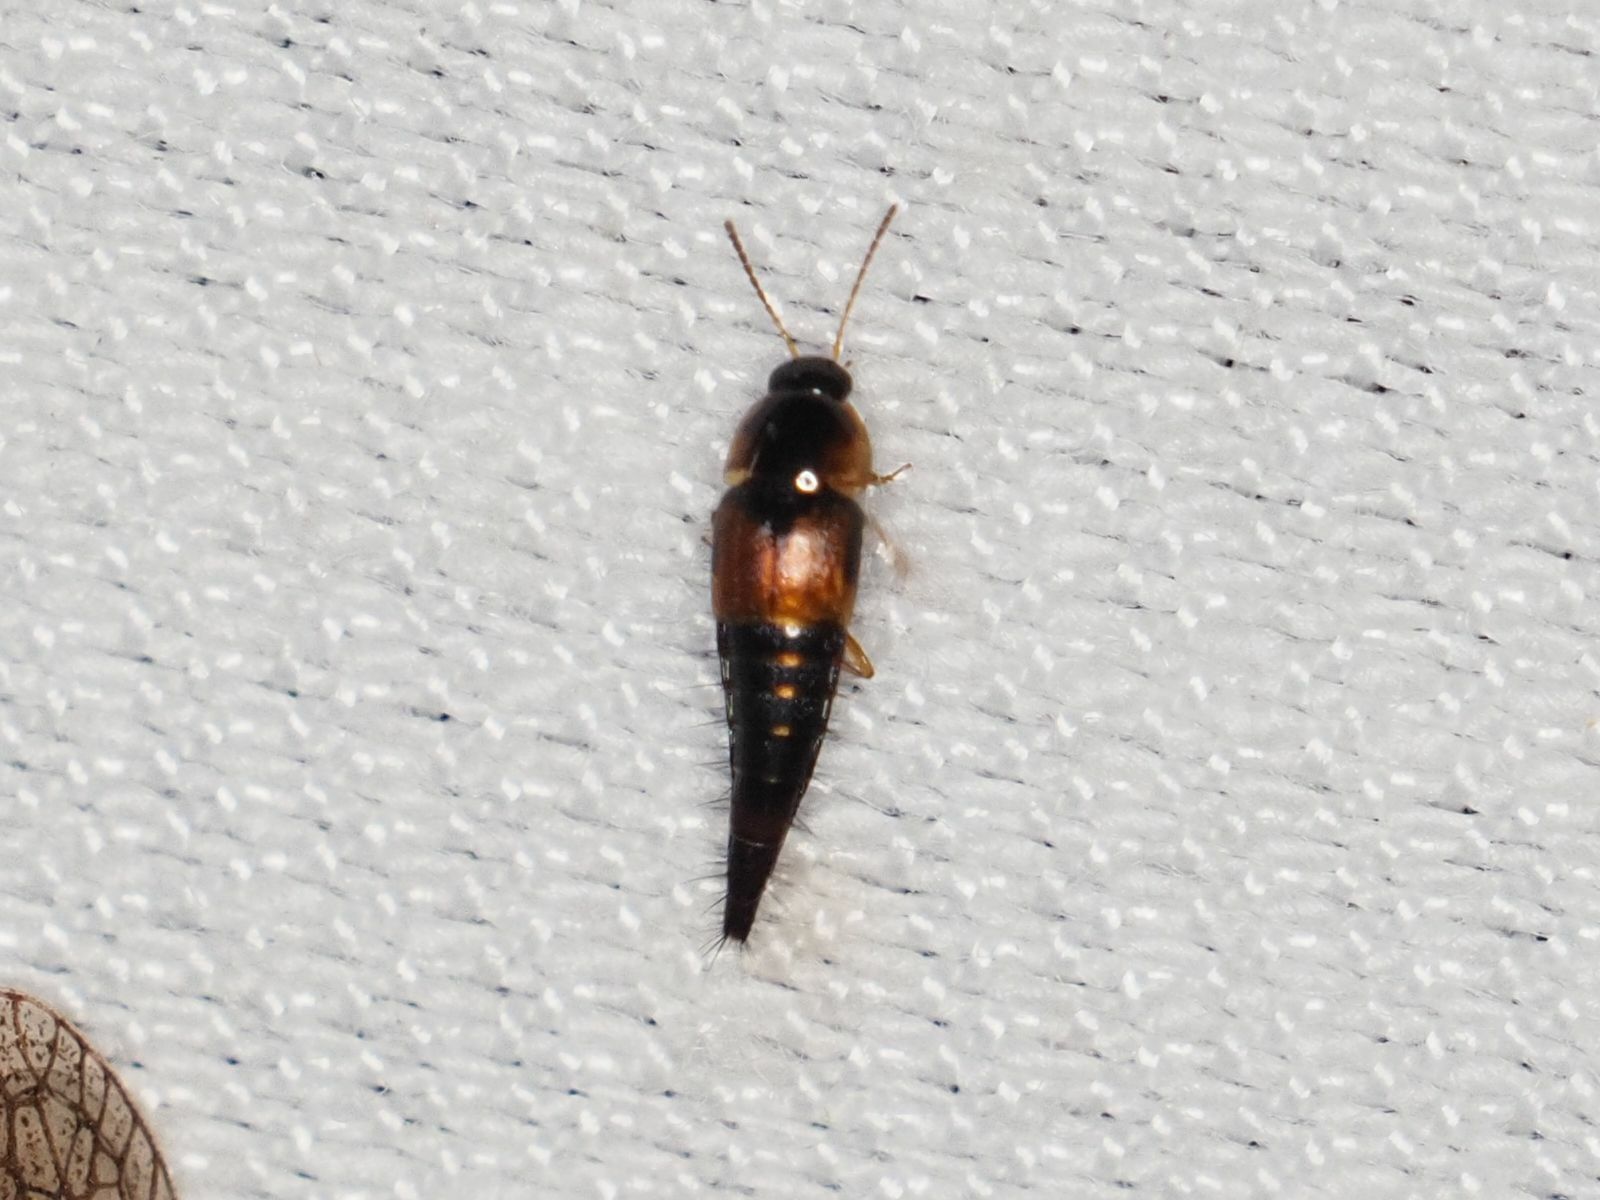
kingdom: Animalia
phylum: Arthropoda
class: Insecta
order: Coleoptera
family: Staphylinidae
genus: Tachyporus
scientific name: Tachyporus hypnorum
